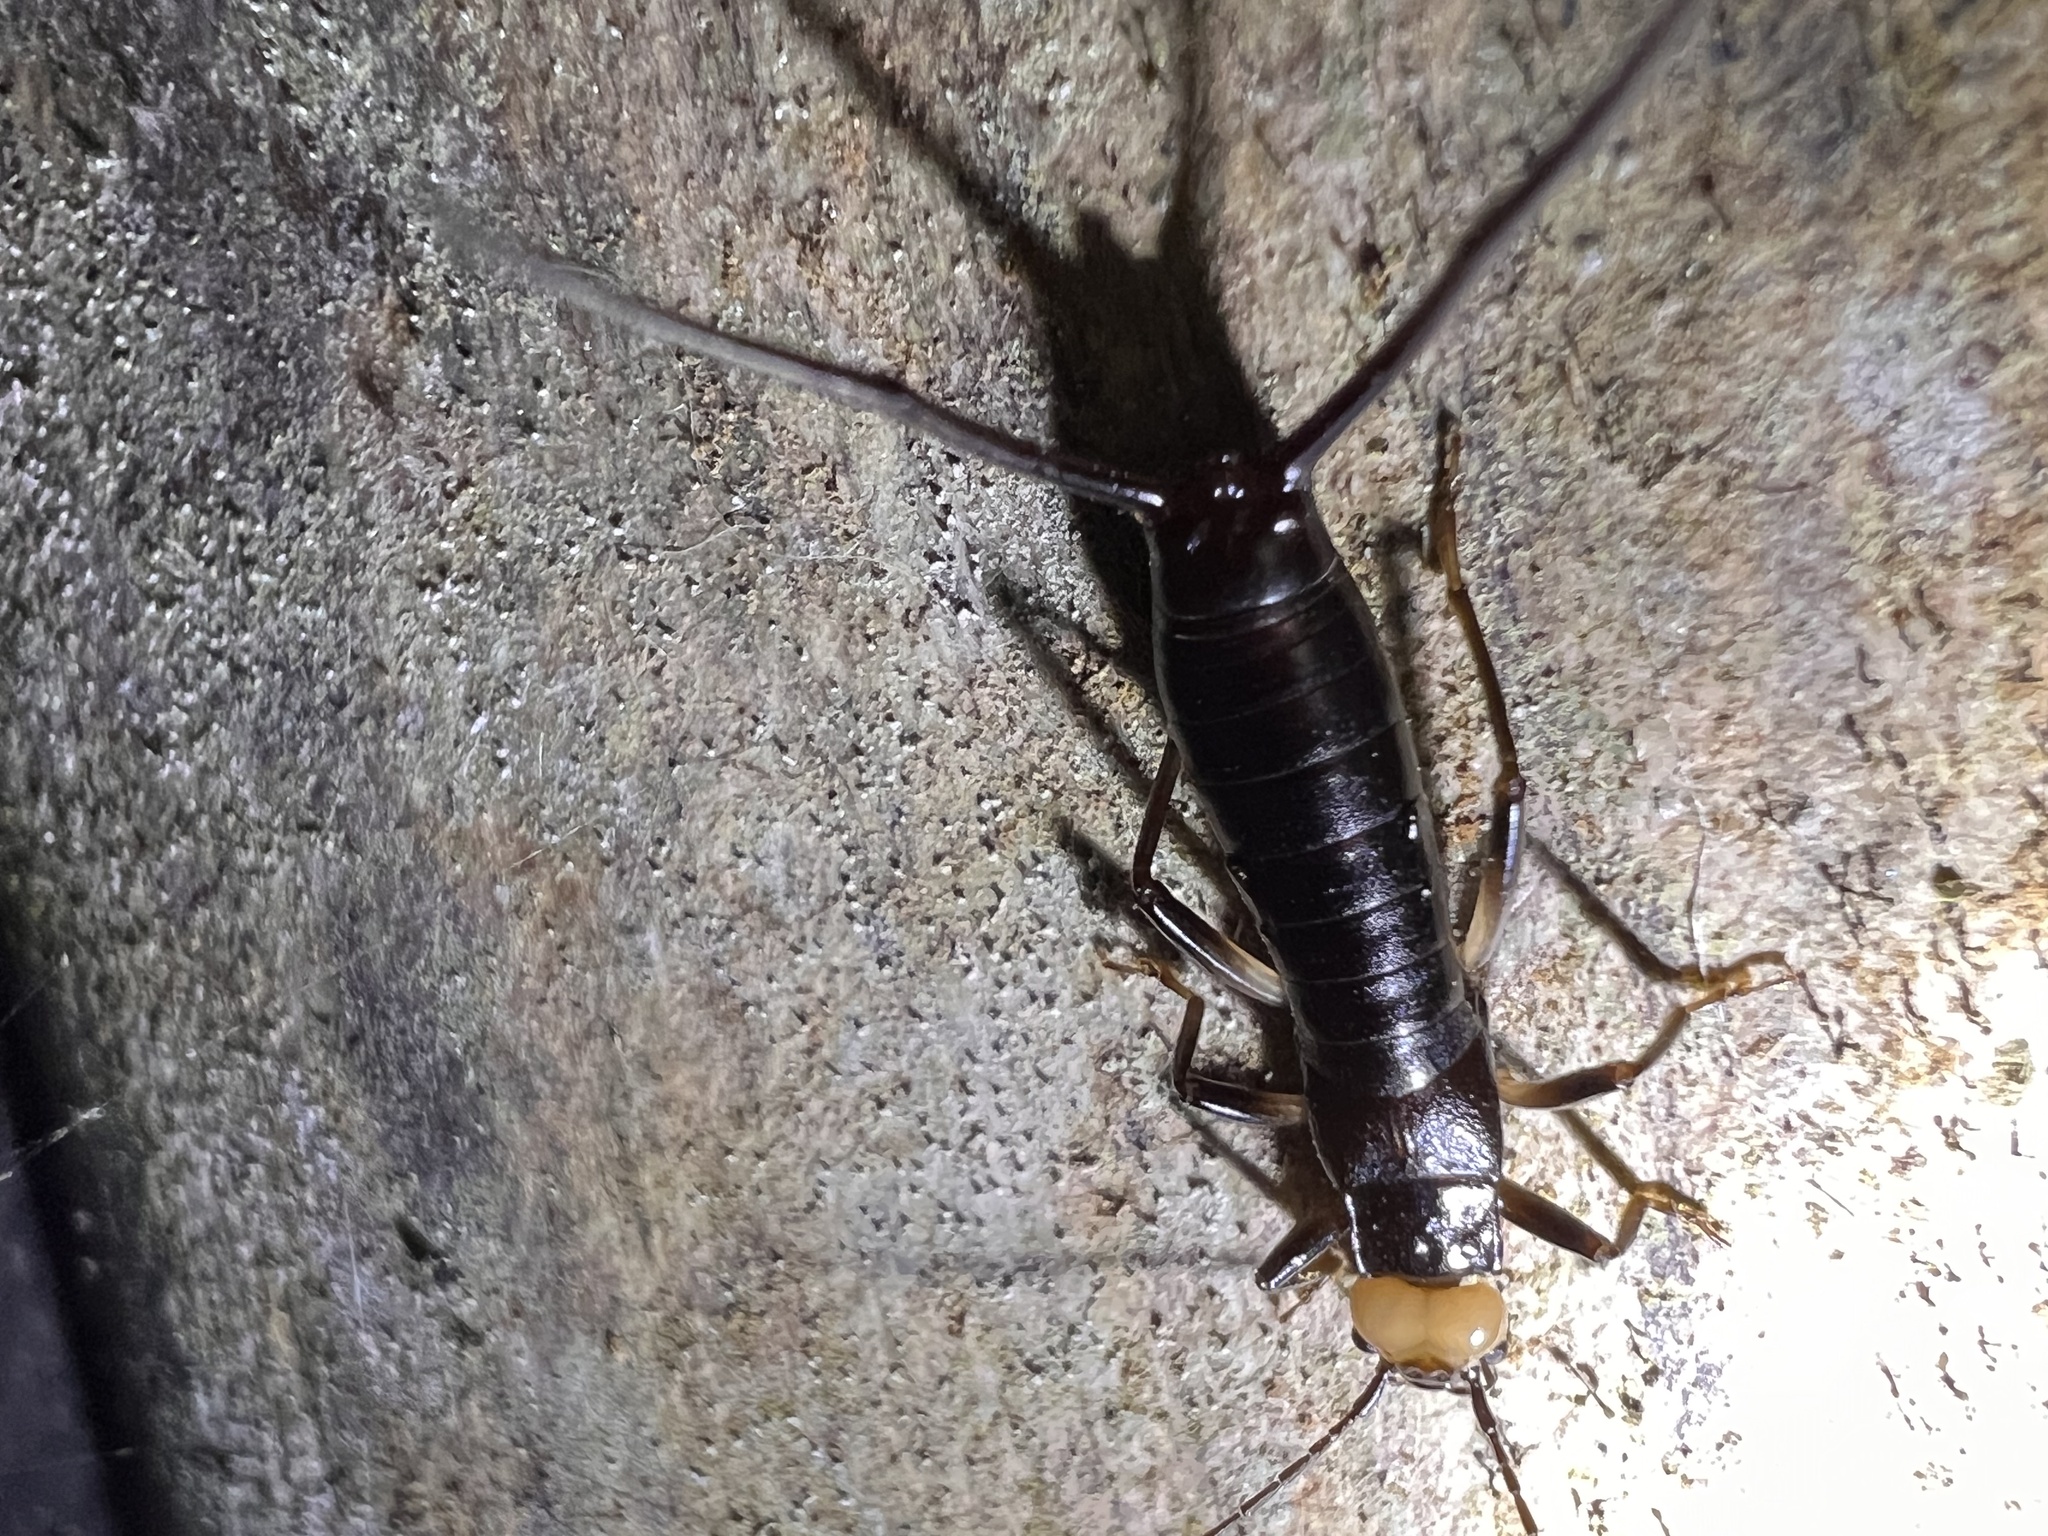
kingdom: Animalia
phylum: Arthropoda
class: Insecta
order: Dermaptera
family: Forficulidae
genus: Metresura
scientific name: Metresura flavipes
